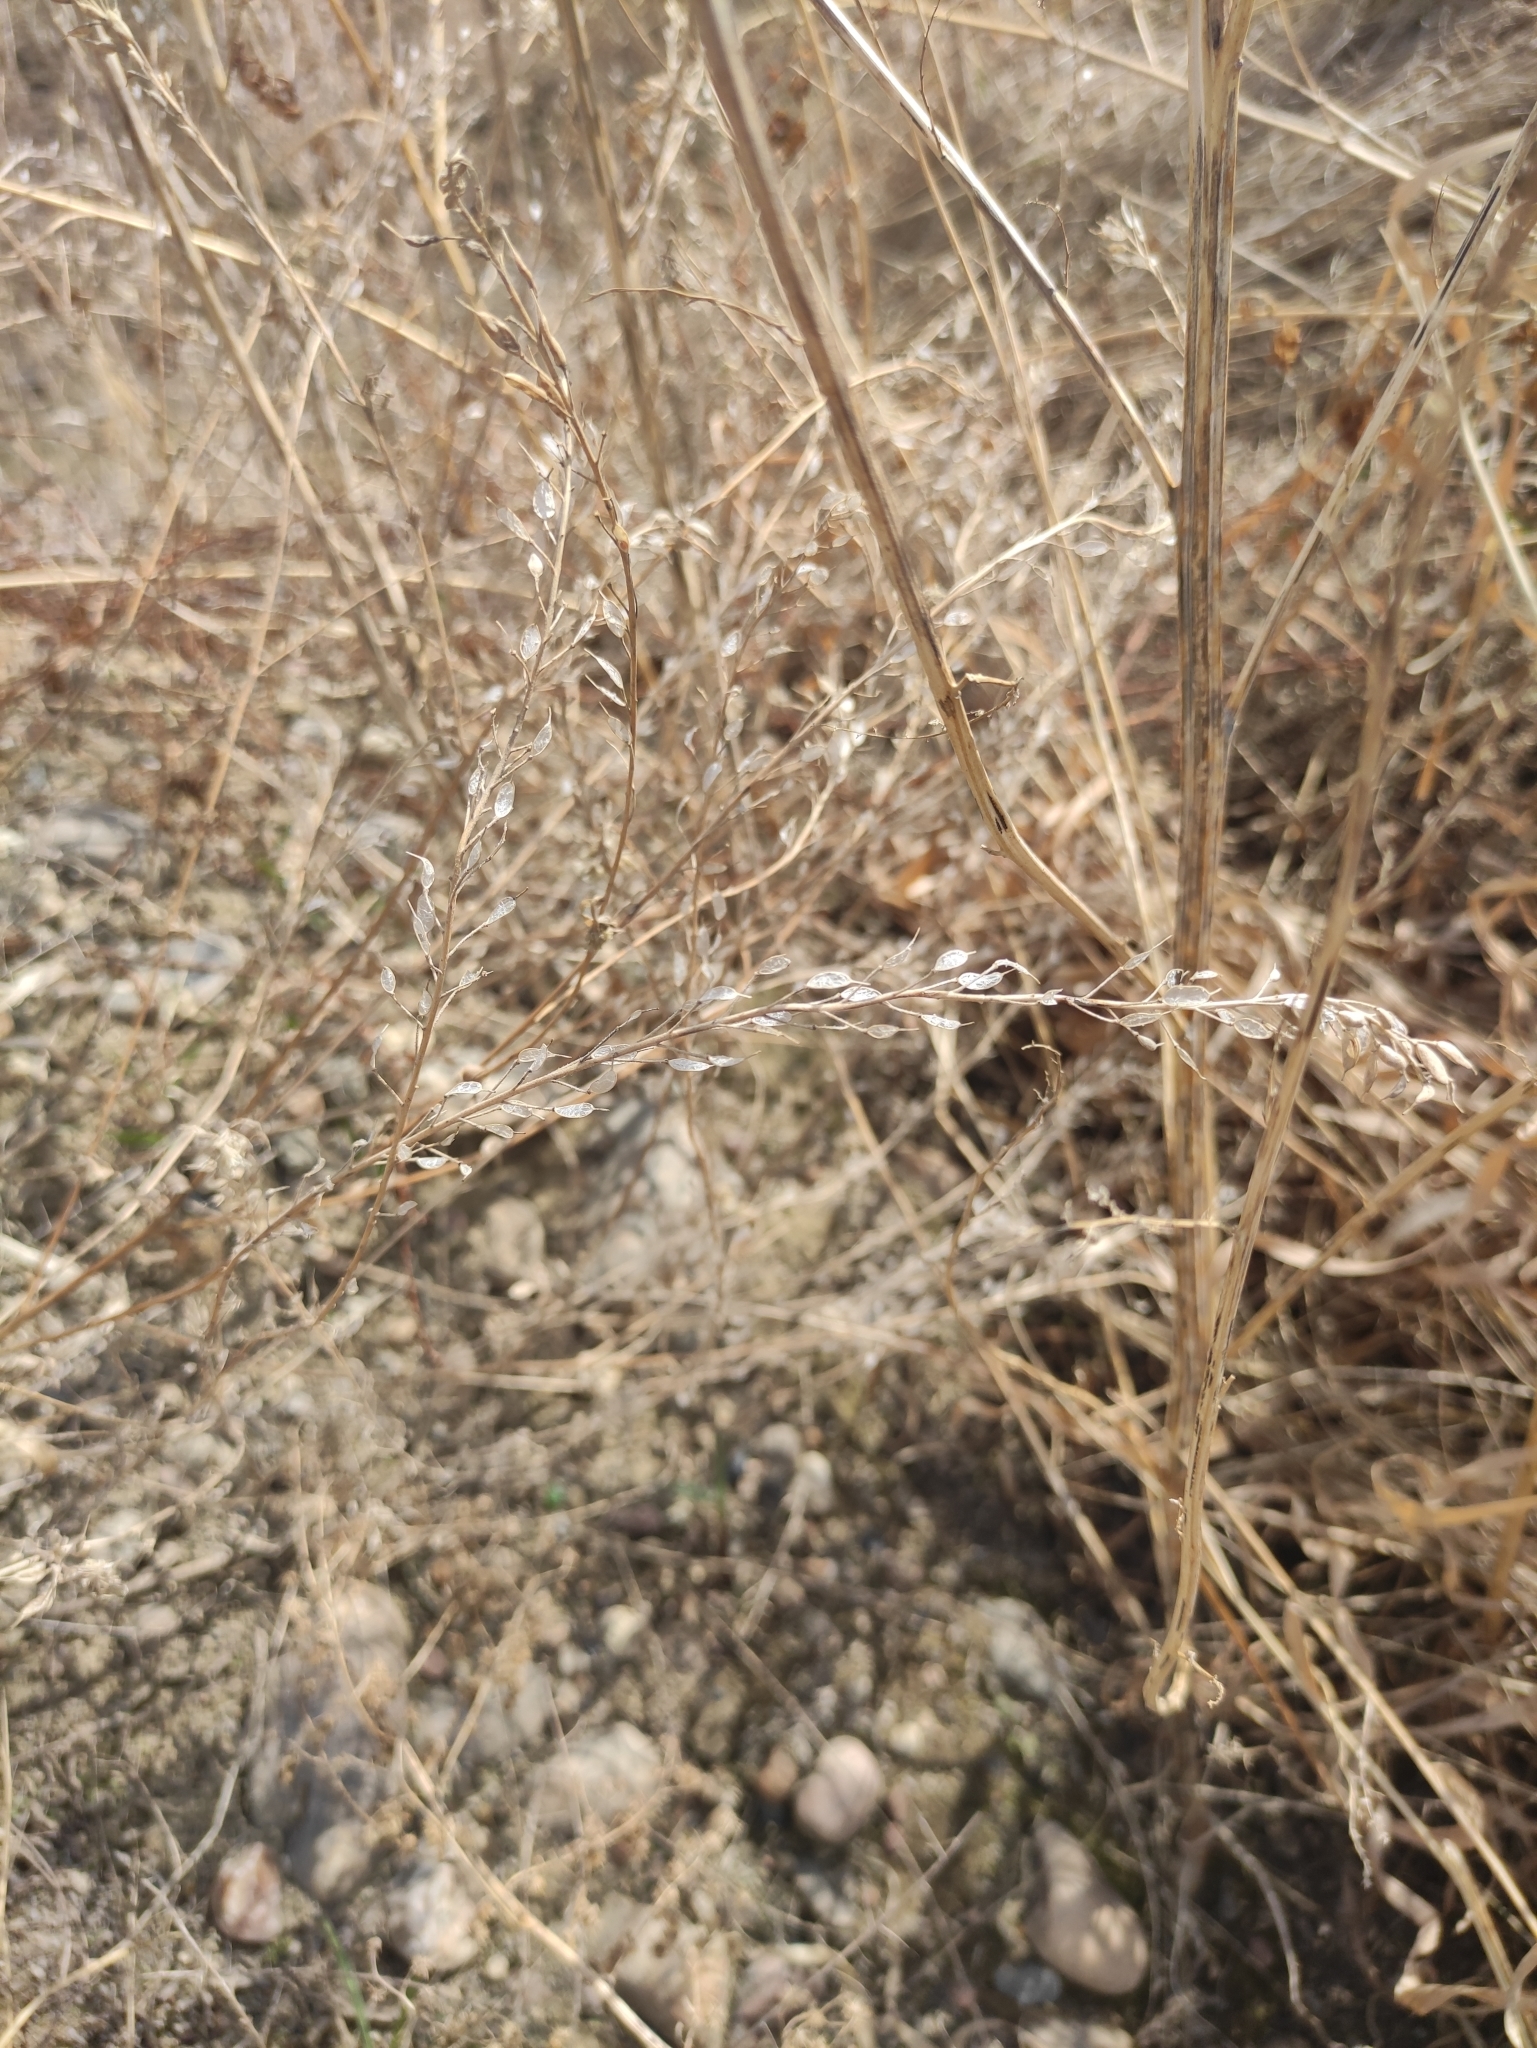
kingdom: Plantae
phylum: Tracheophyta
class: Magnoliopsida
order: Brassicales
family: Brassicaceae
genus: Berteroa
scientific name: Berteroa incana
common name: Hoary alison
